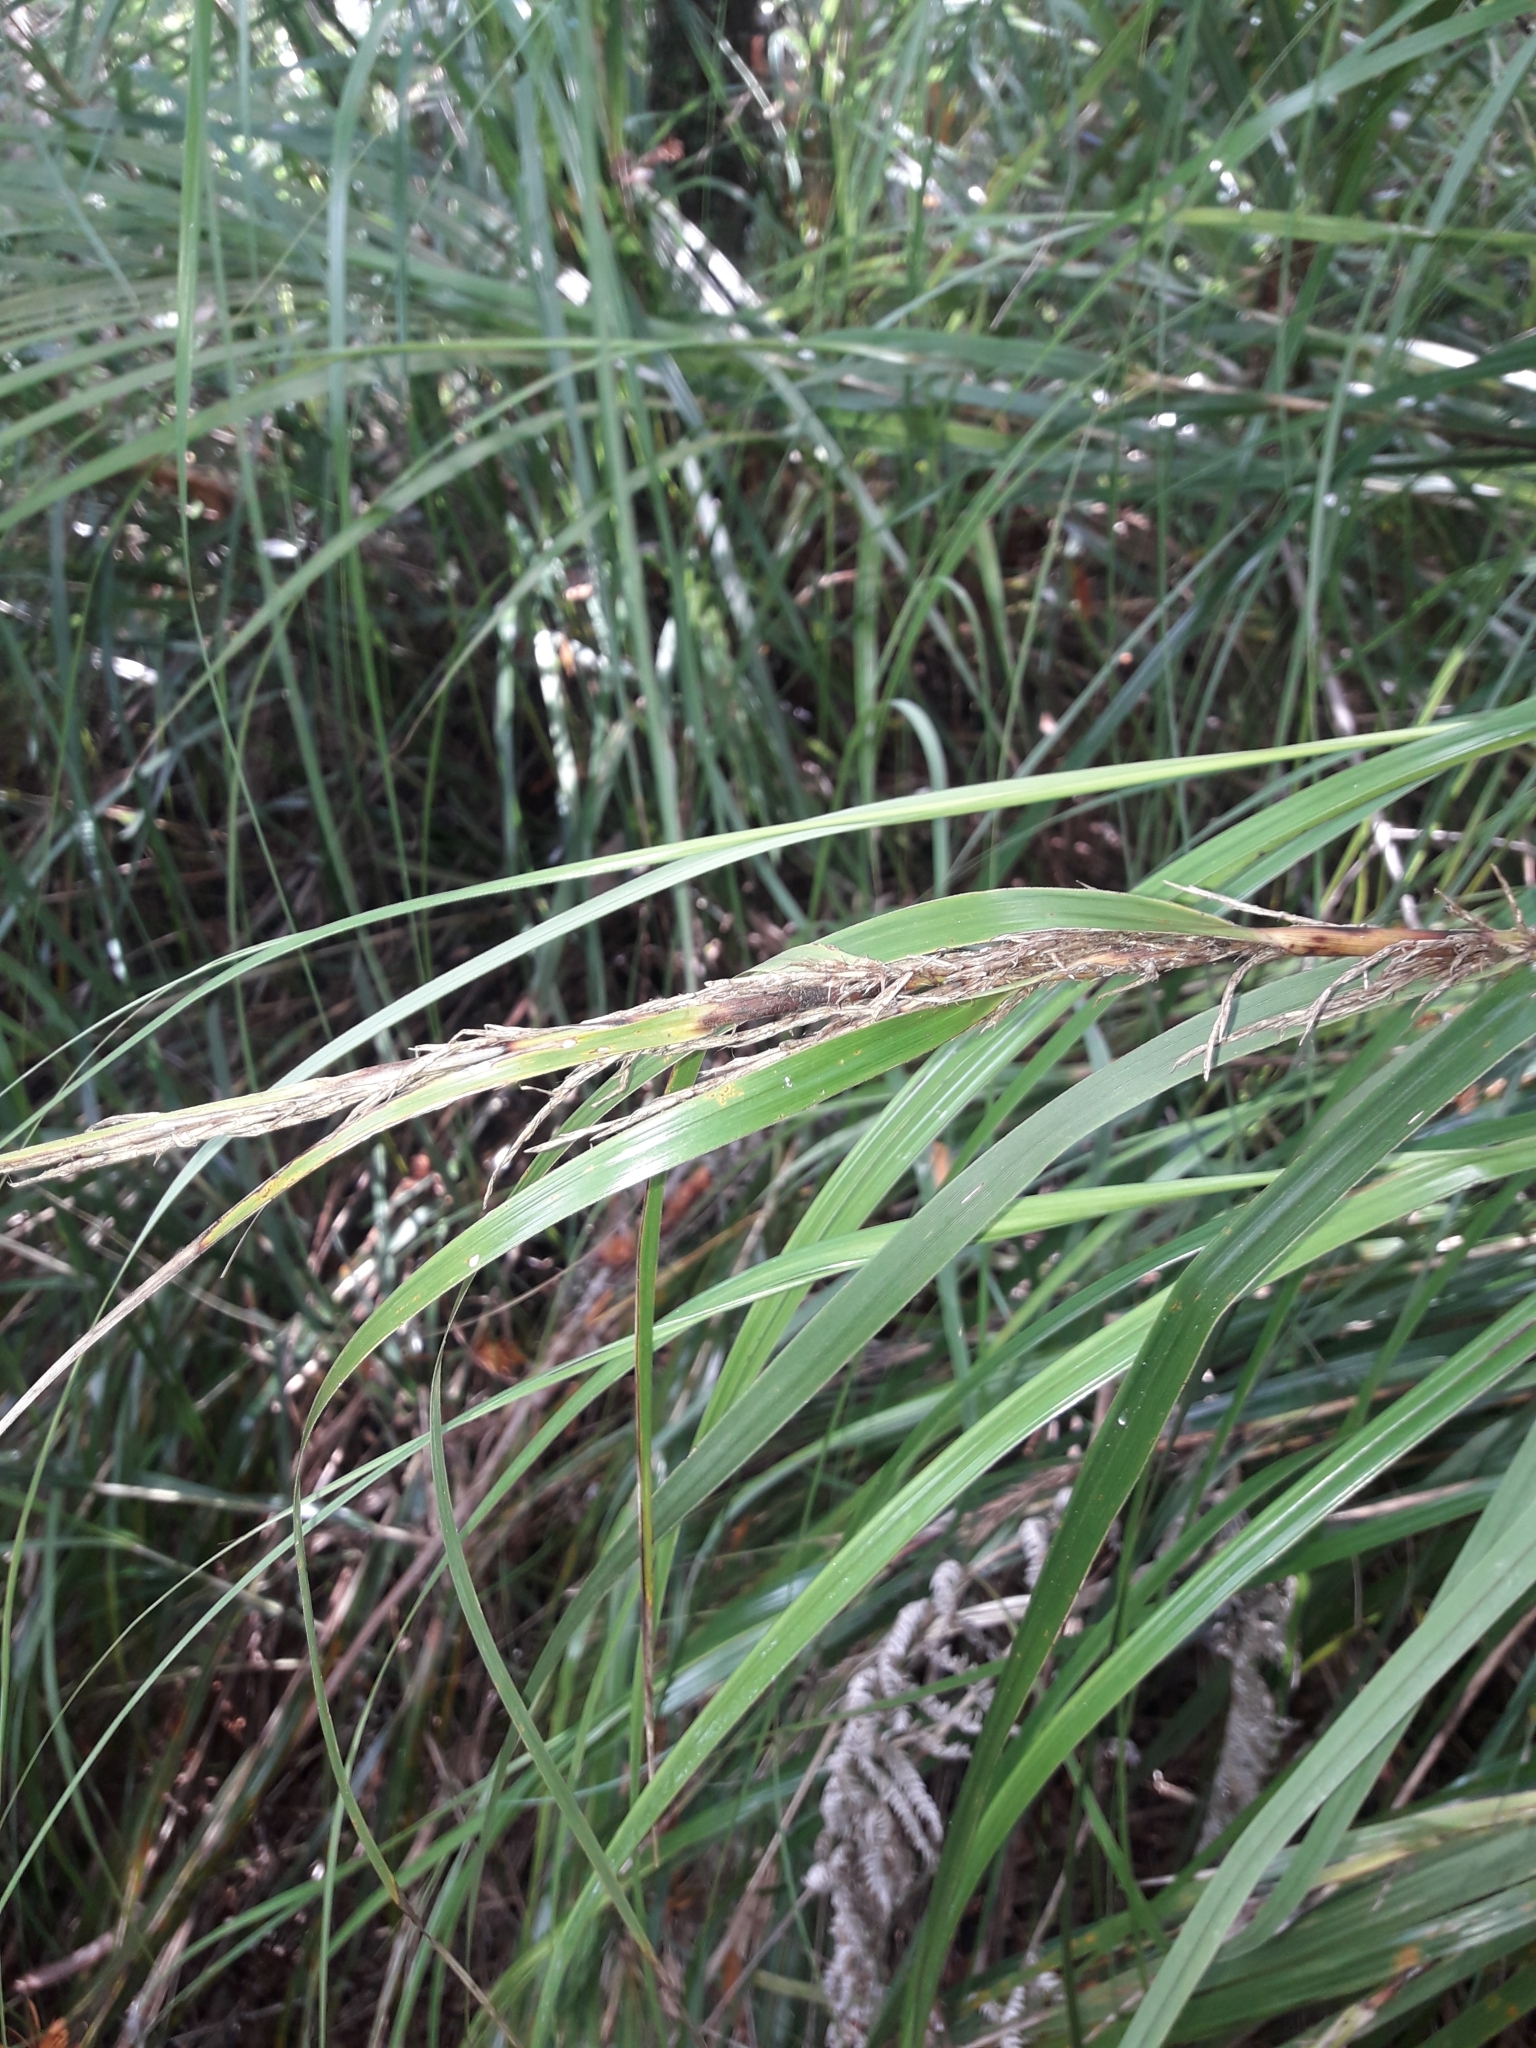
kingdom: Plantae
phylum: Tracheophyta
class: Liliopsida
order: Poales
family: Cyperaceae
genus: Gahnia
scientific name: Gahnia lacera
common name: Sawsedge
